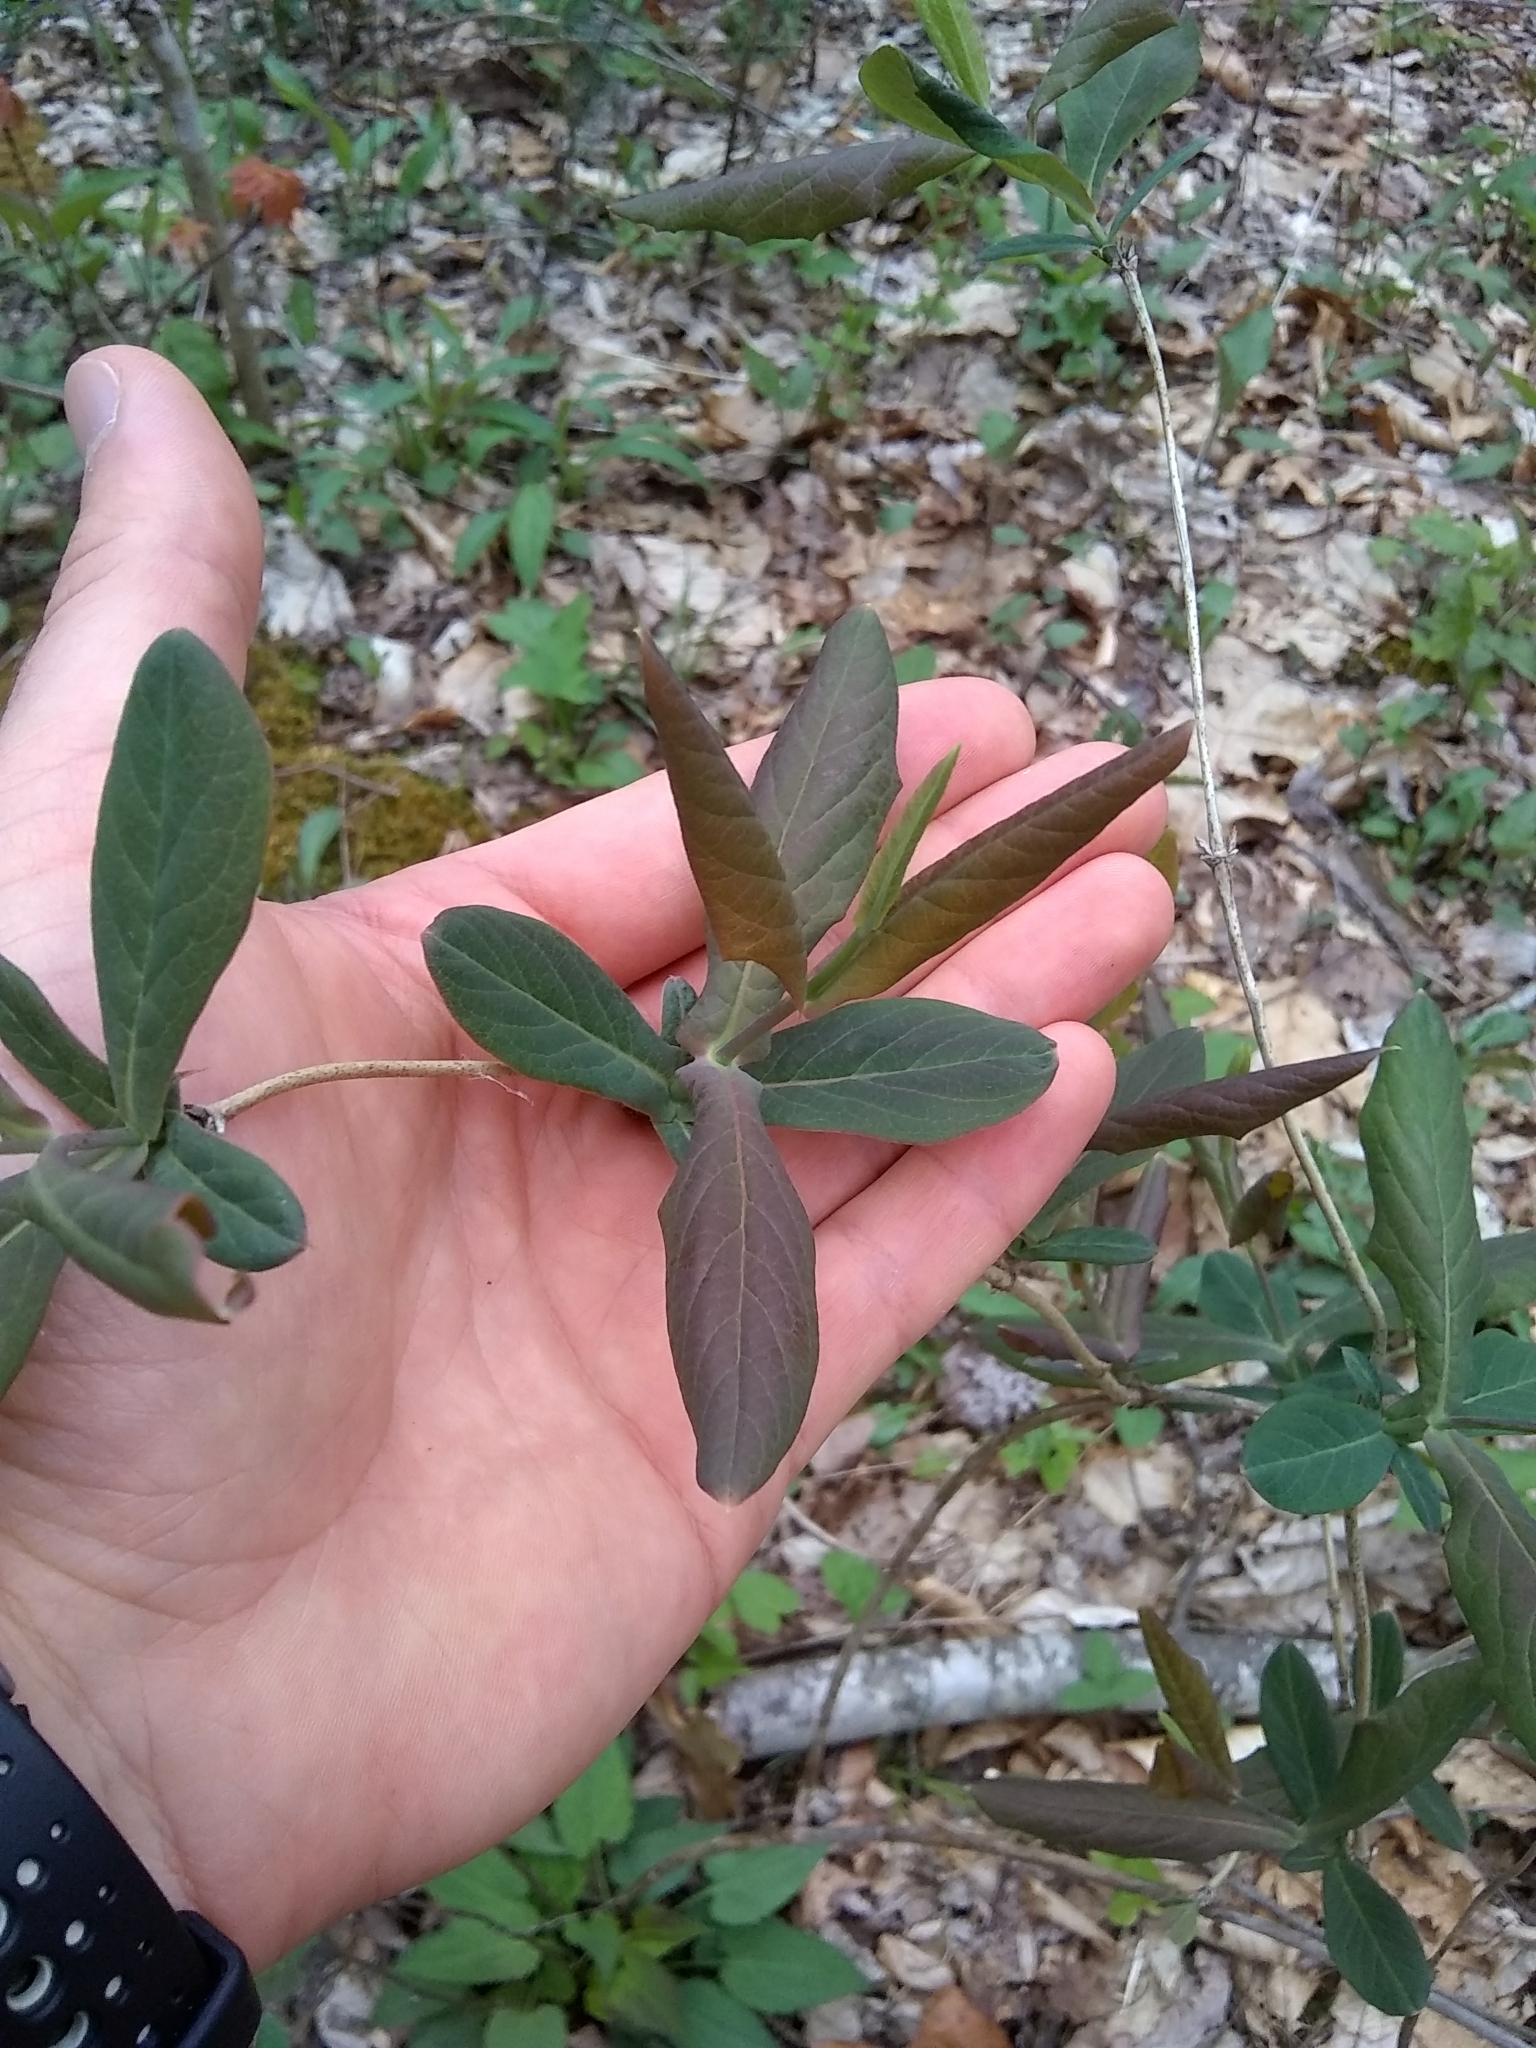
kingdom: Plantae
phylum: Tracheophyta
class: Magnoliopsida
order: Dipsacales
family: Caprifoliaceae
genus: Lonicera
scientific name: Lonicera dioica
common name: Limber honeysuckle
